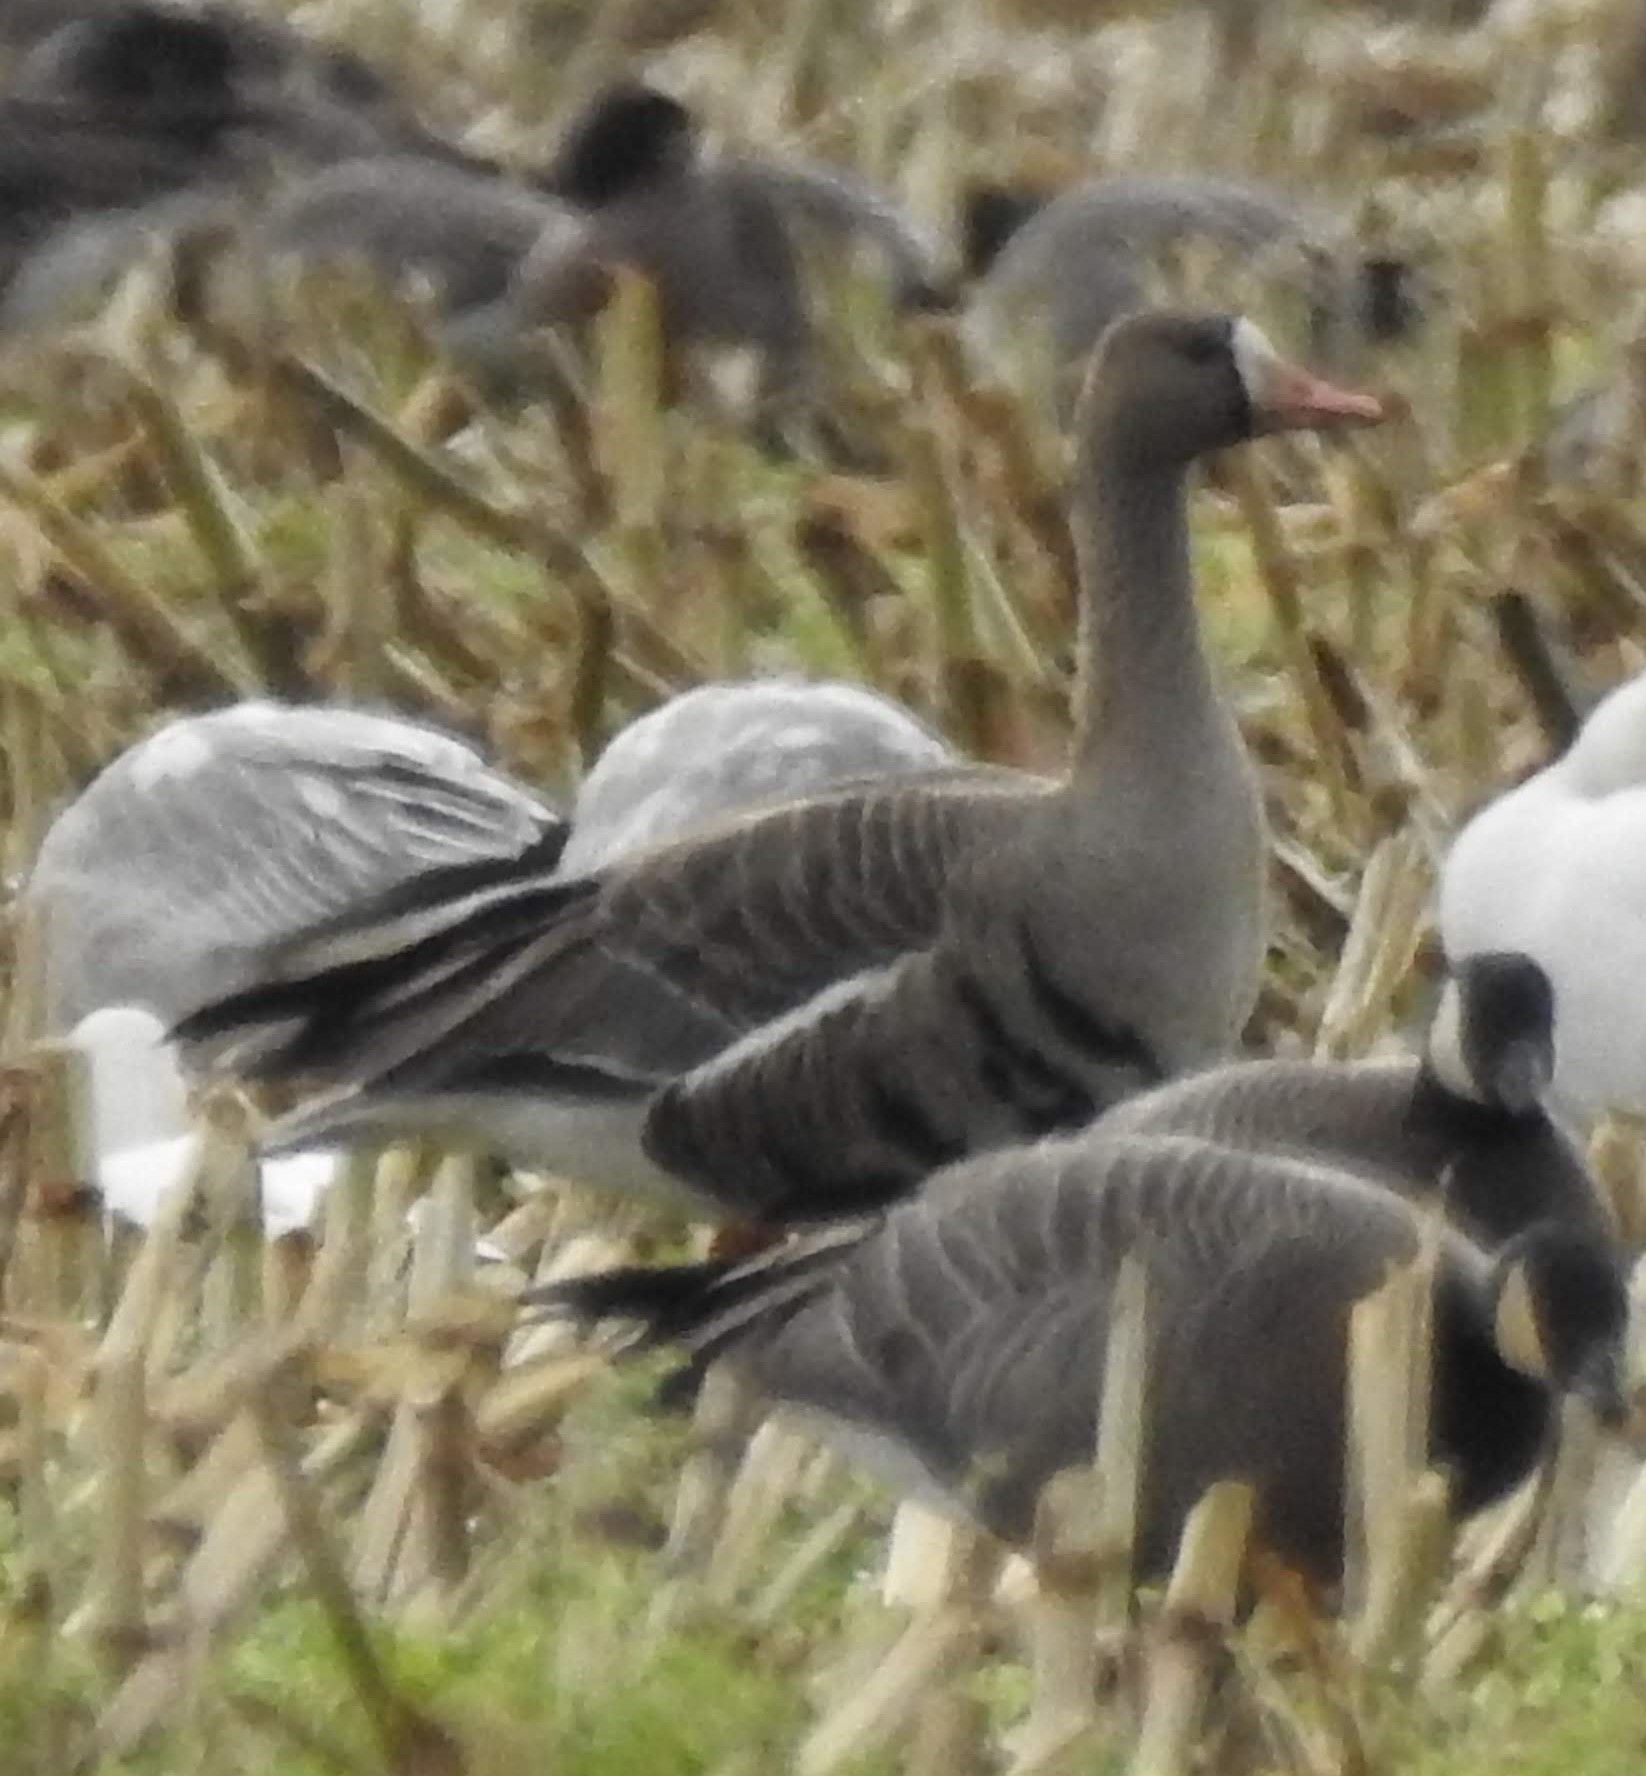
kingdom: Animalia
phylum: Chordata
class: Aves
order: Anseriformes
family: Anatidae
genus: Anser
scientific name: Anser albifrons
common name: Greater white-fronted goose
